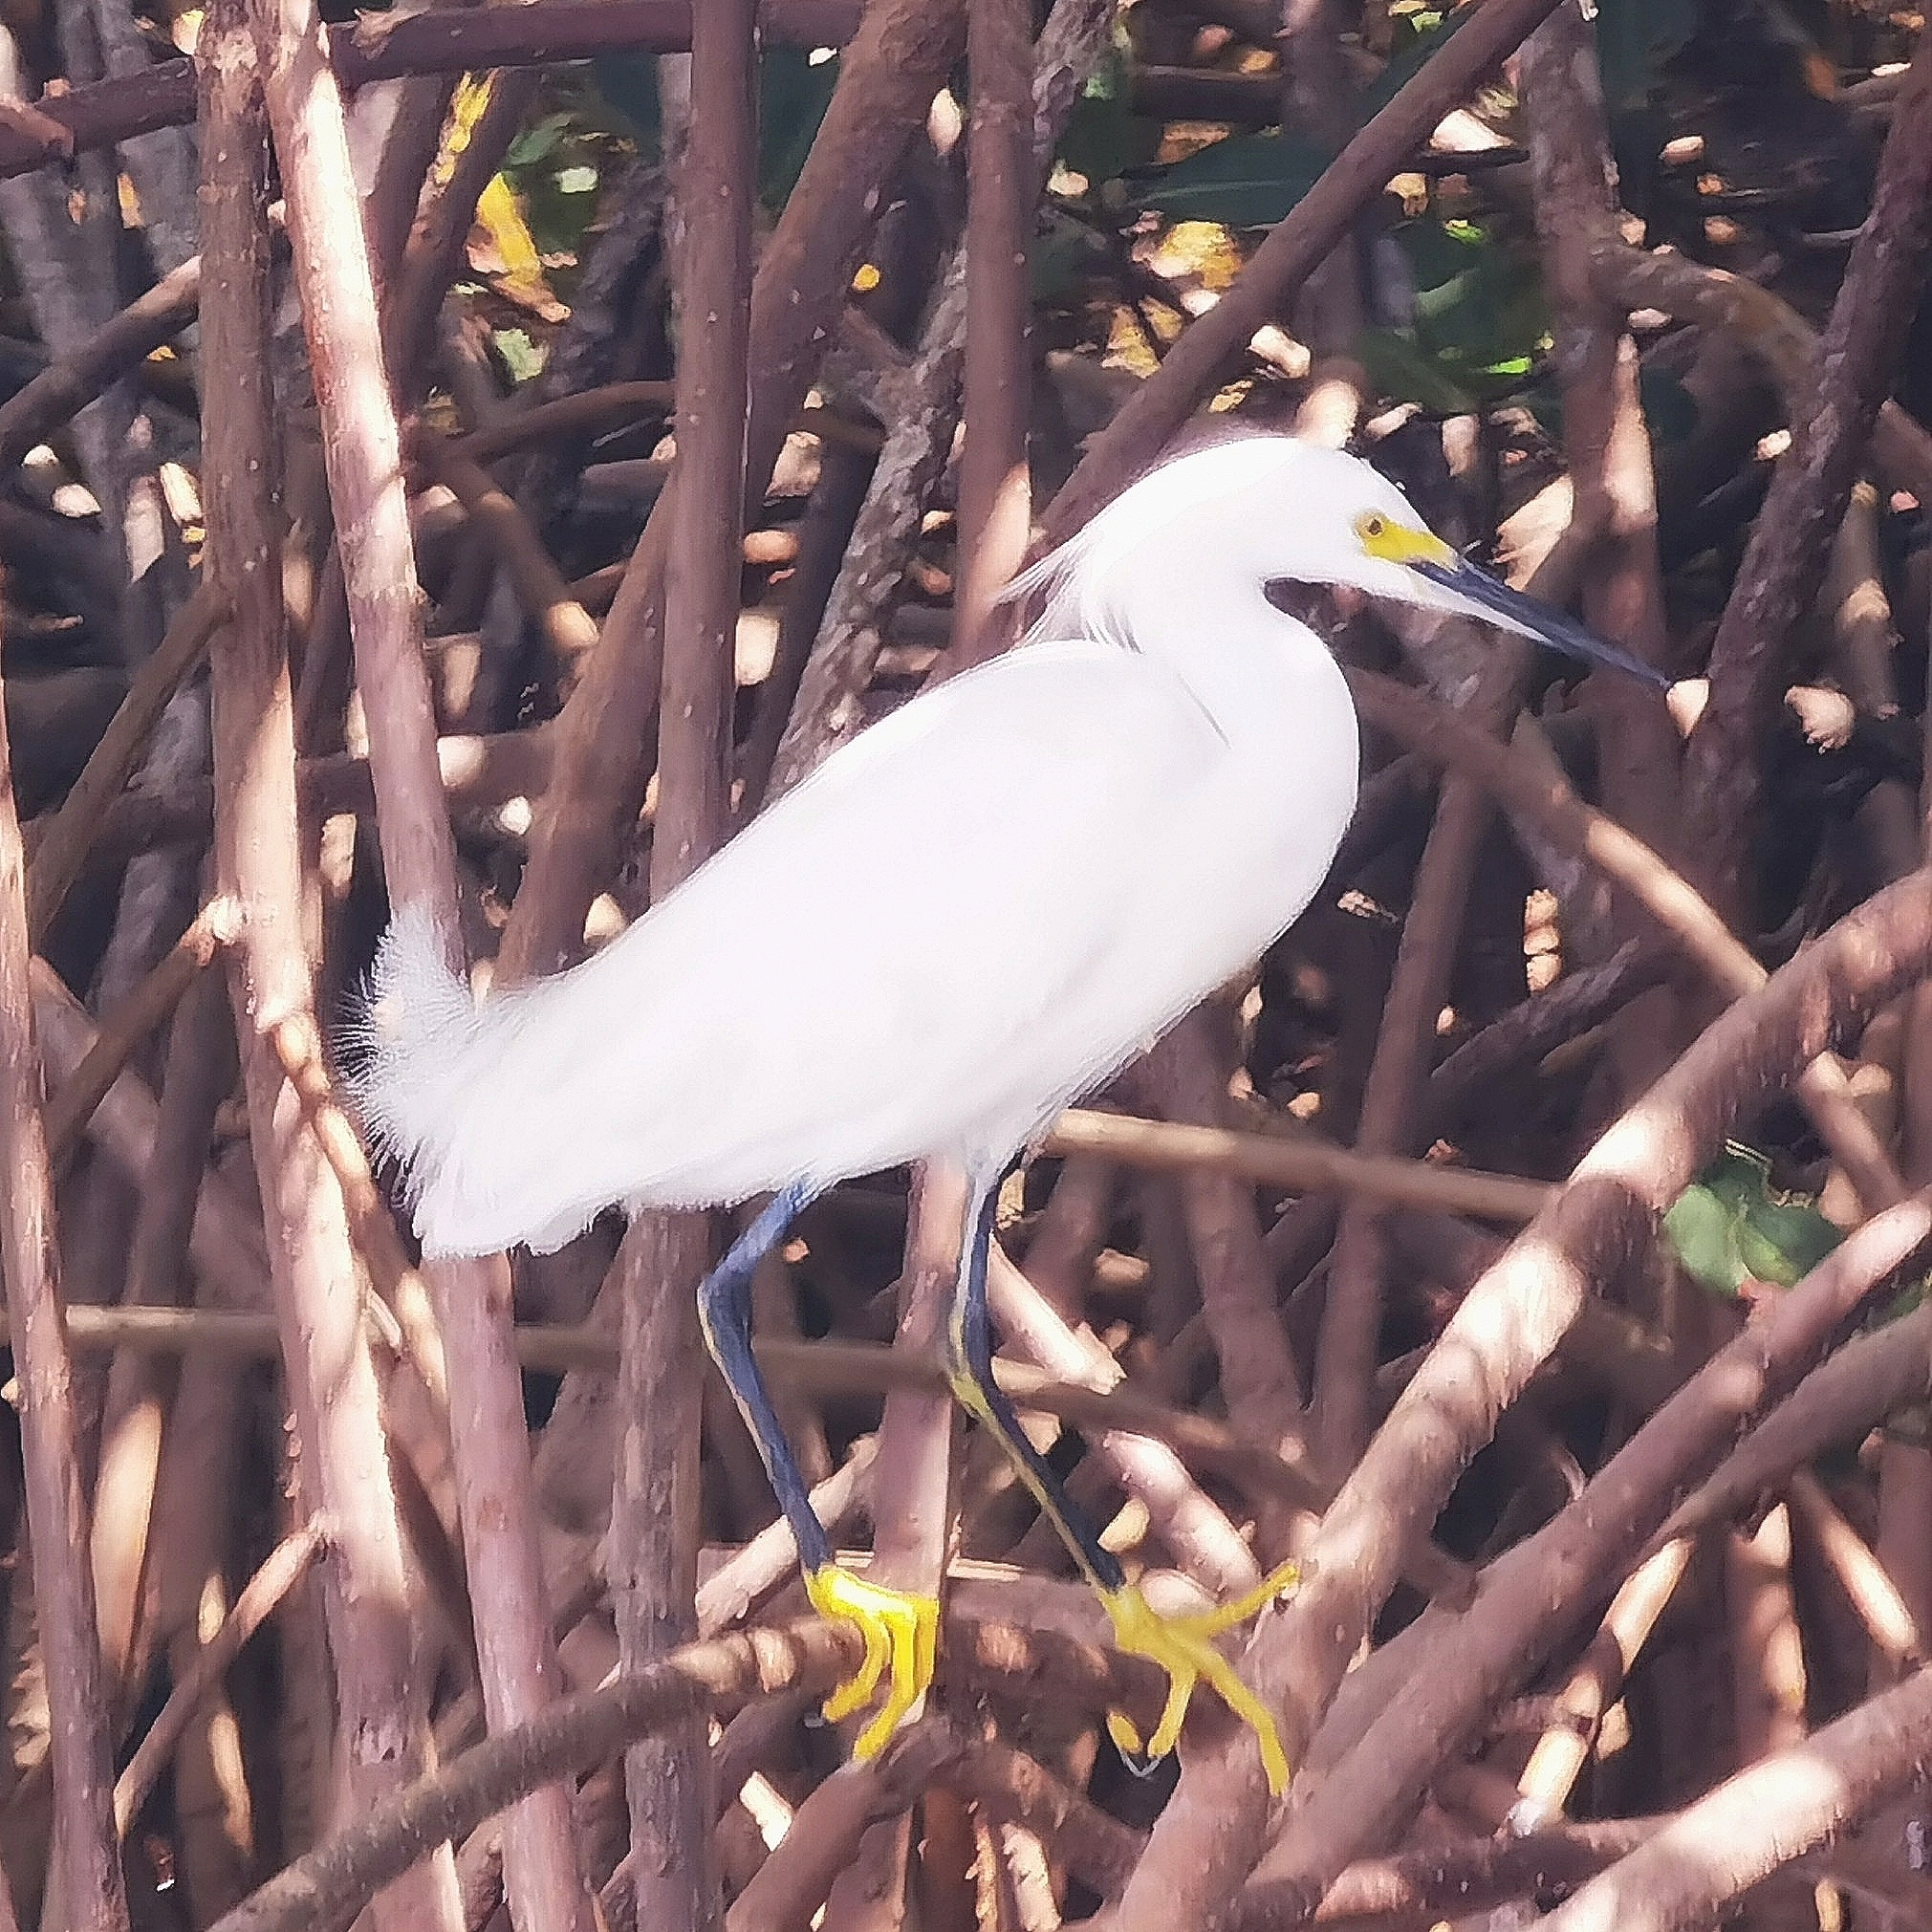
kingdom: Animalia
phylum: Chordata
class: Aves
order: Pelecaniformes
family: Ardeidae
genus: Egretta
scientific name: Egretta thula
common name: Snowy egret
